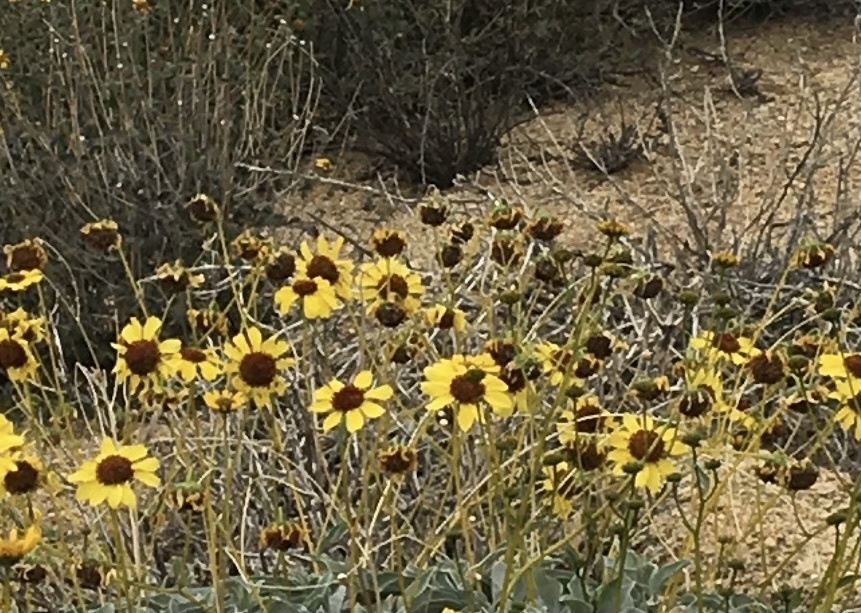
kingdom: Plantae
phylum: Tracheophyta
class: Magnoliopsida
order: Asterales
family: Asteraceae
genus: Encelia
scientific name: Encelia farinosa
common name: Brittlebush
